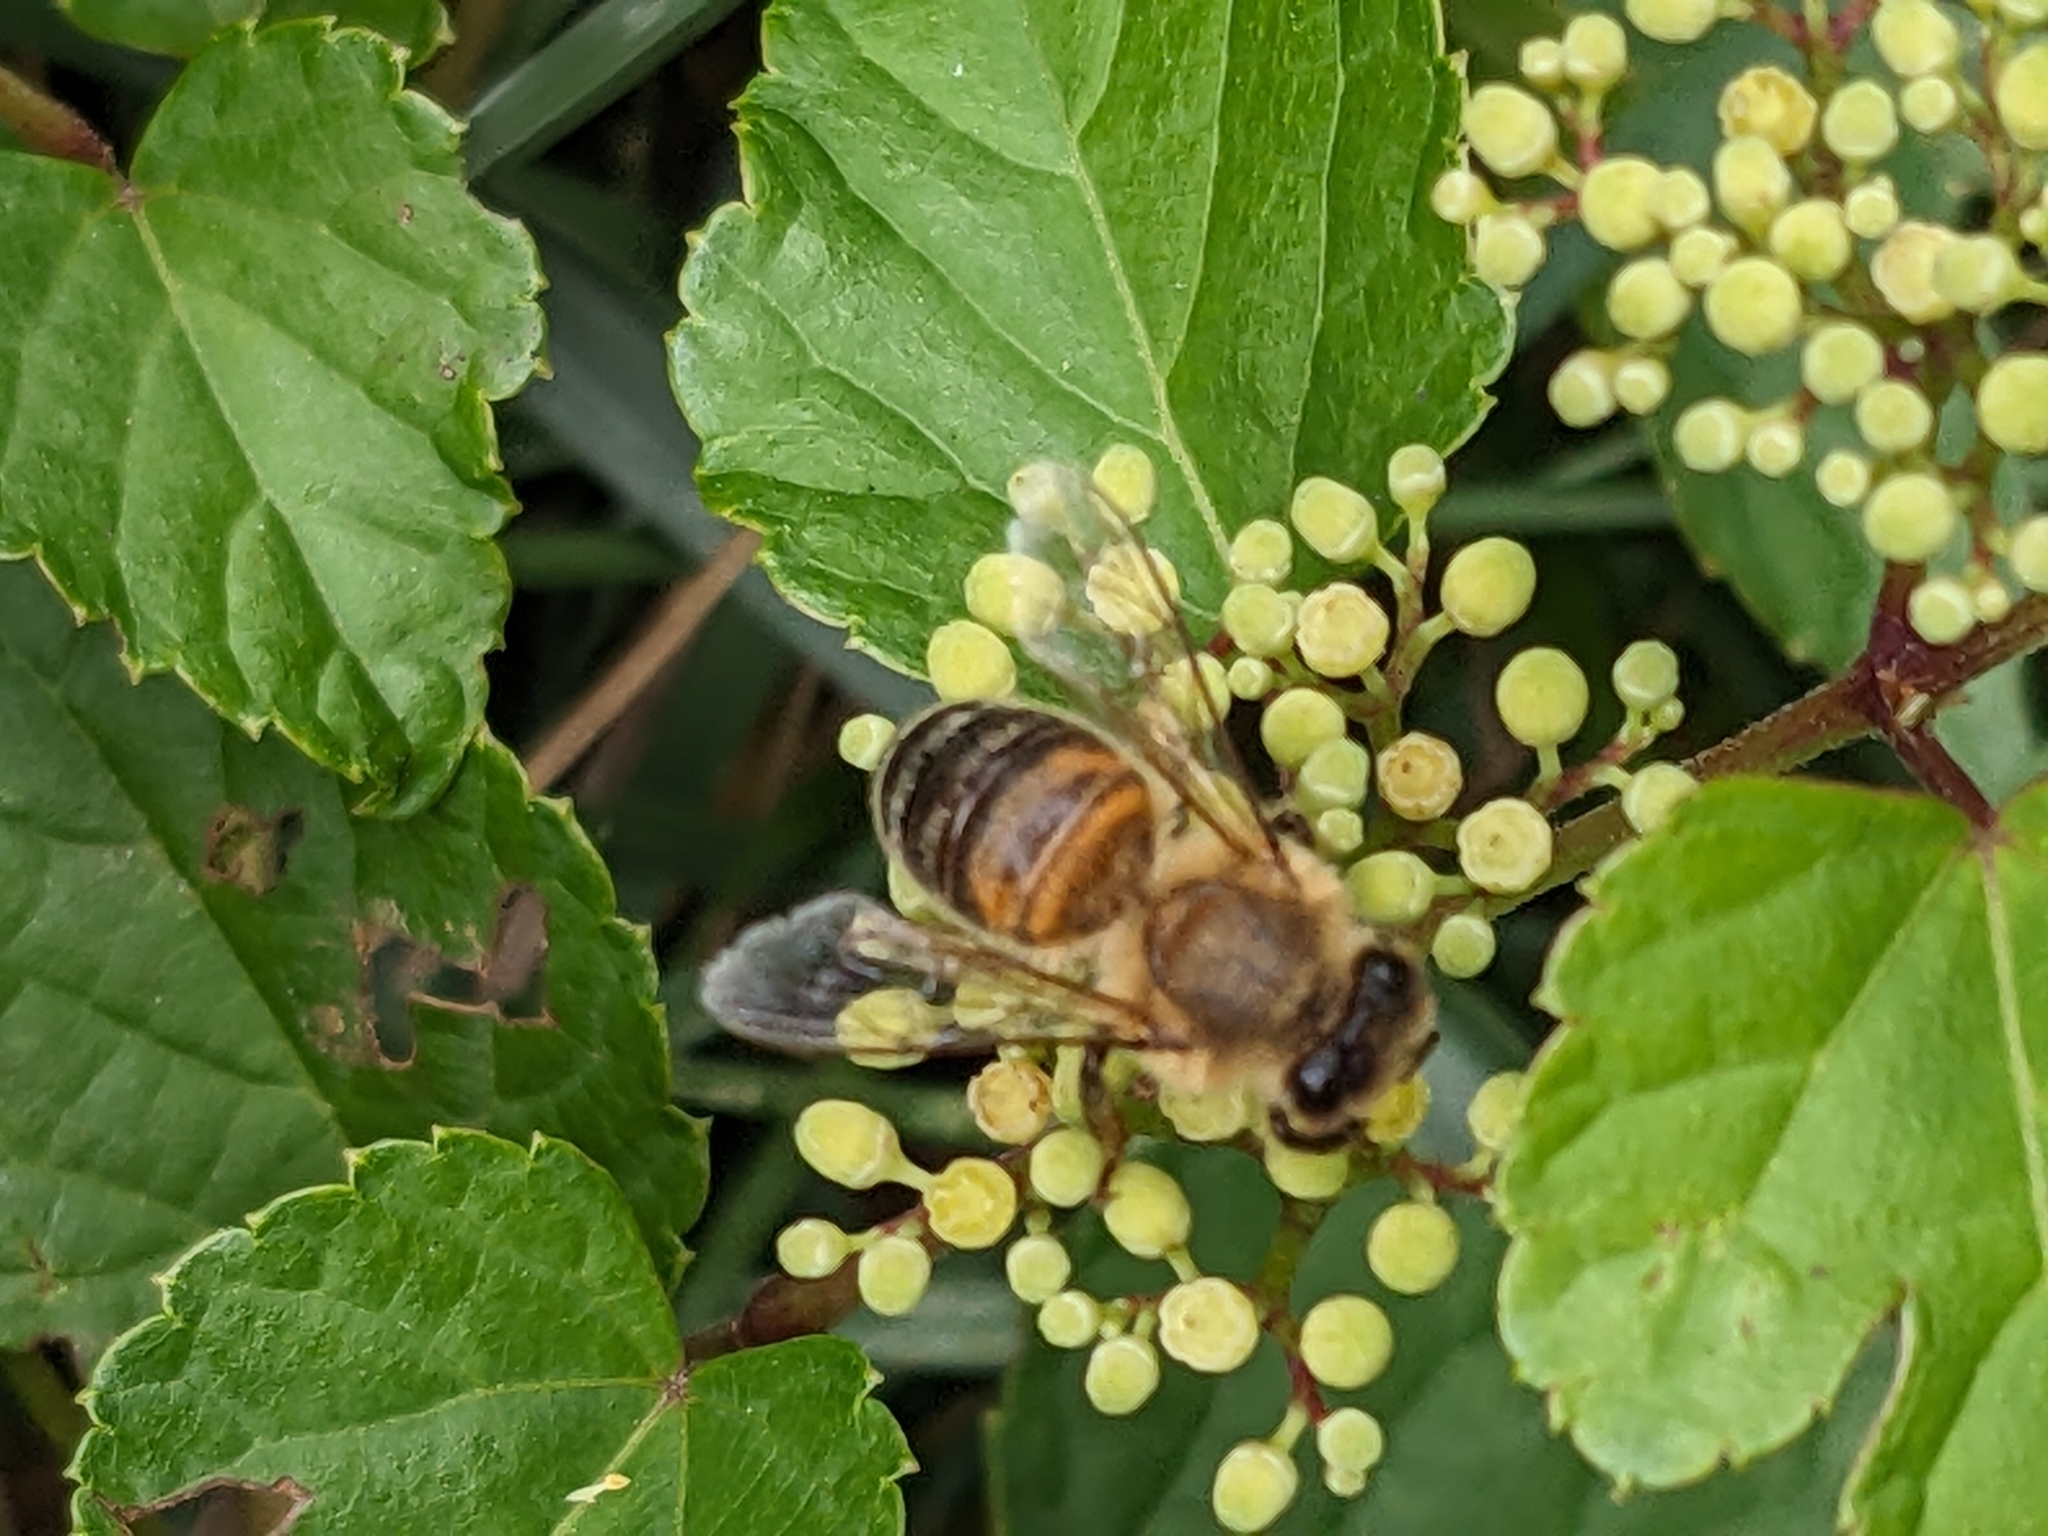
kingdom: Animalia
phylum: Arthropoda
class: Insecta
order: Hymenoptera
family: Apidae
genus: Apis
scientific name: Apis mellifera
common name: Honey bee
